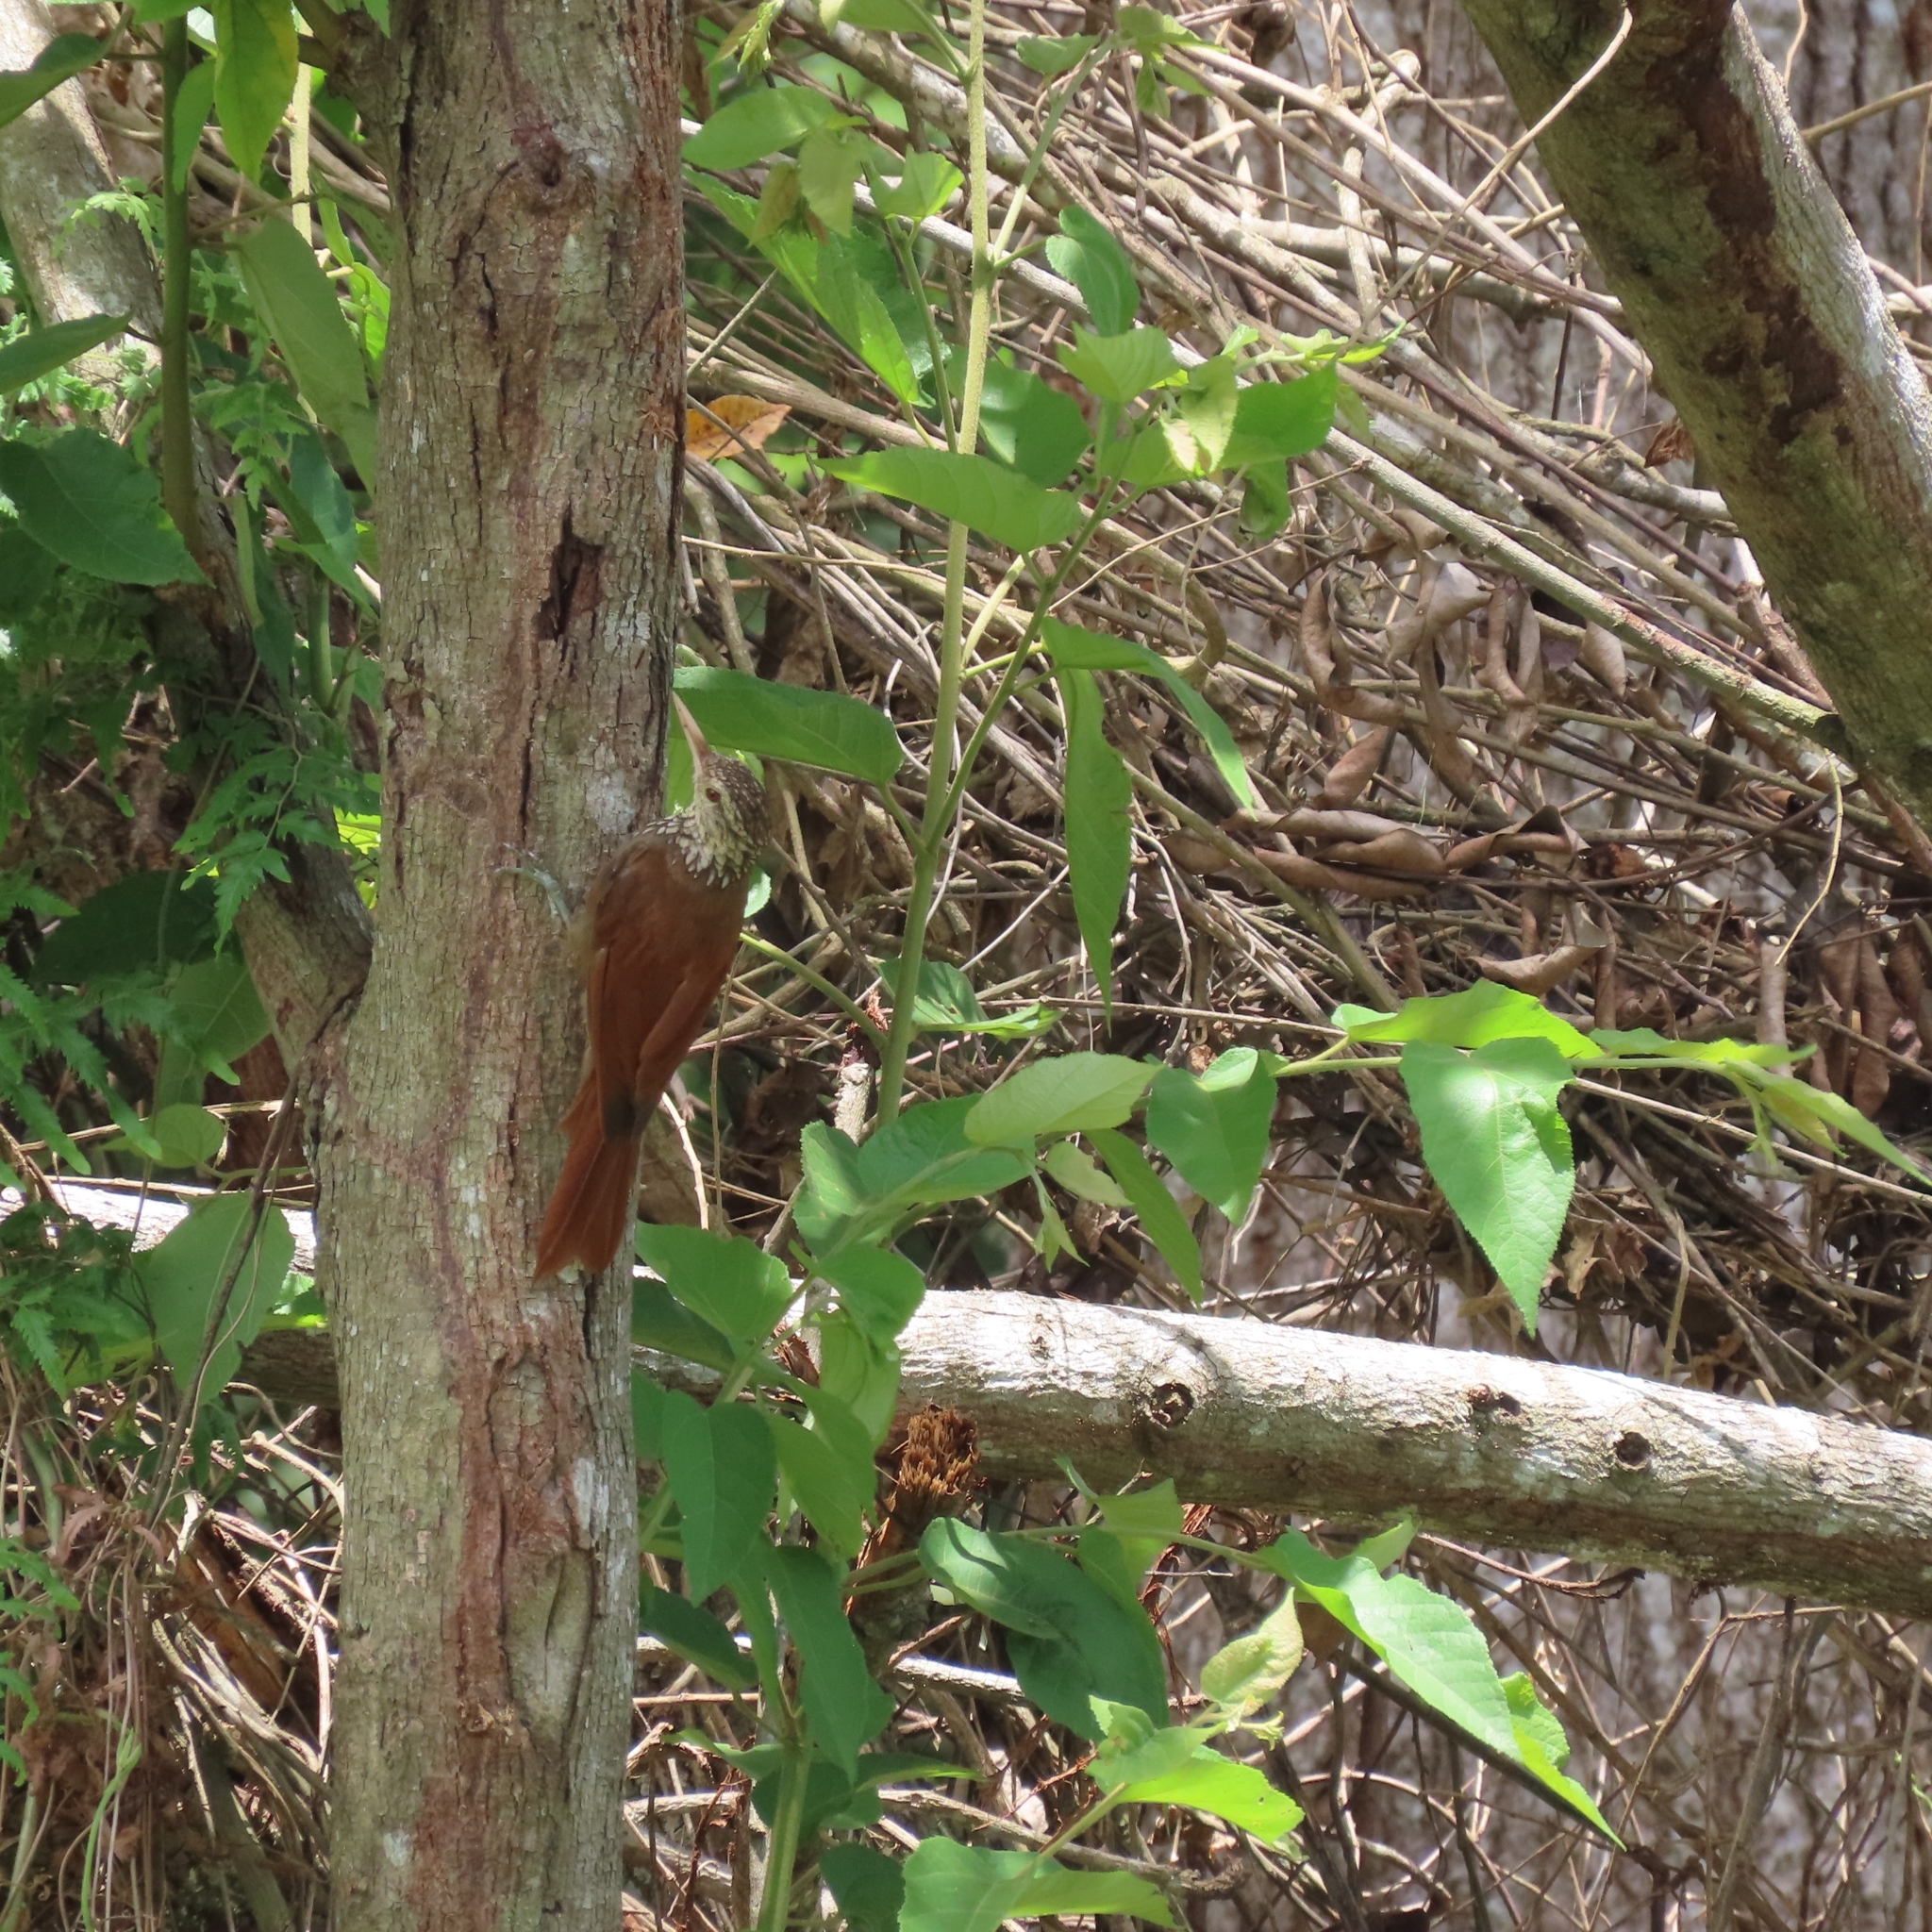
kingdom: Animalia
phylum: Chordata
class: Aves
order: Passeriformes
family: Furnariidae
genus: Xiphorhynchus
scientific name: Xiphorhynchus picus
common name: Straight-billed woodcreeper
